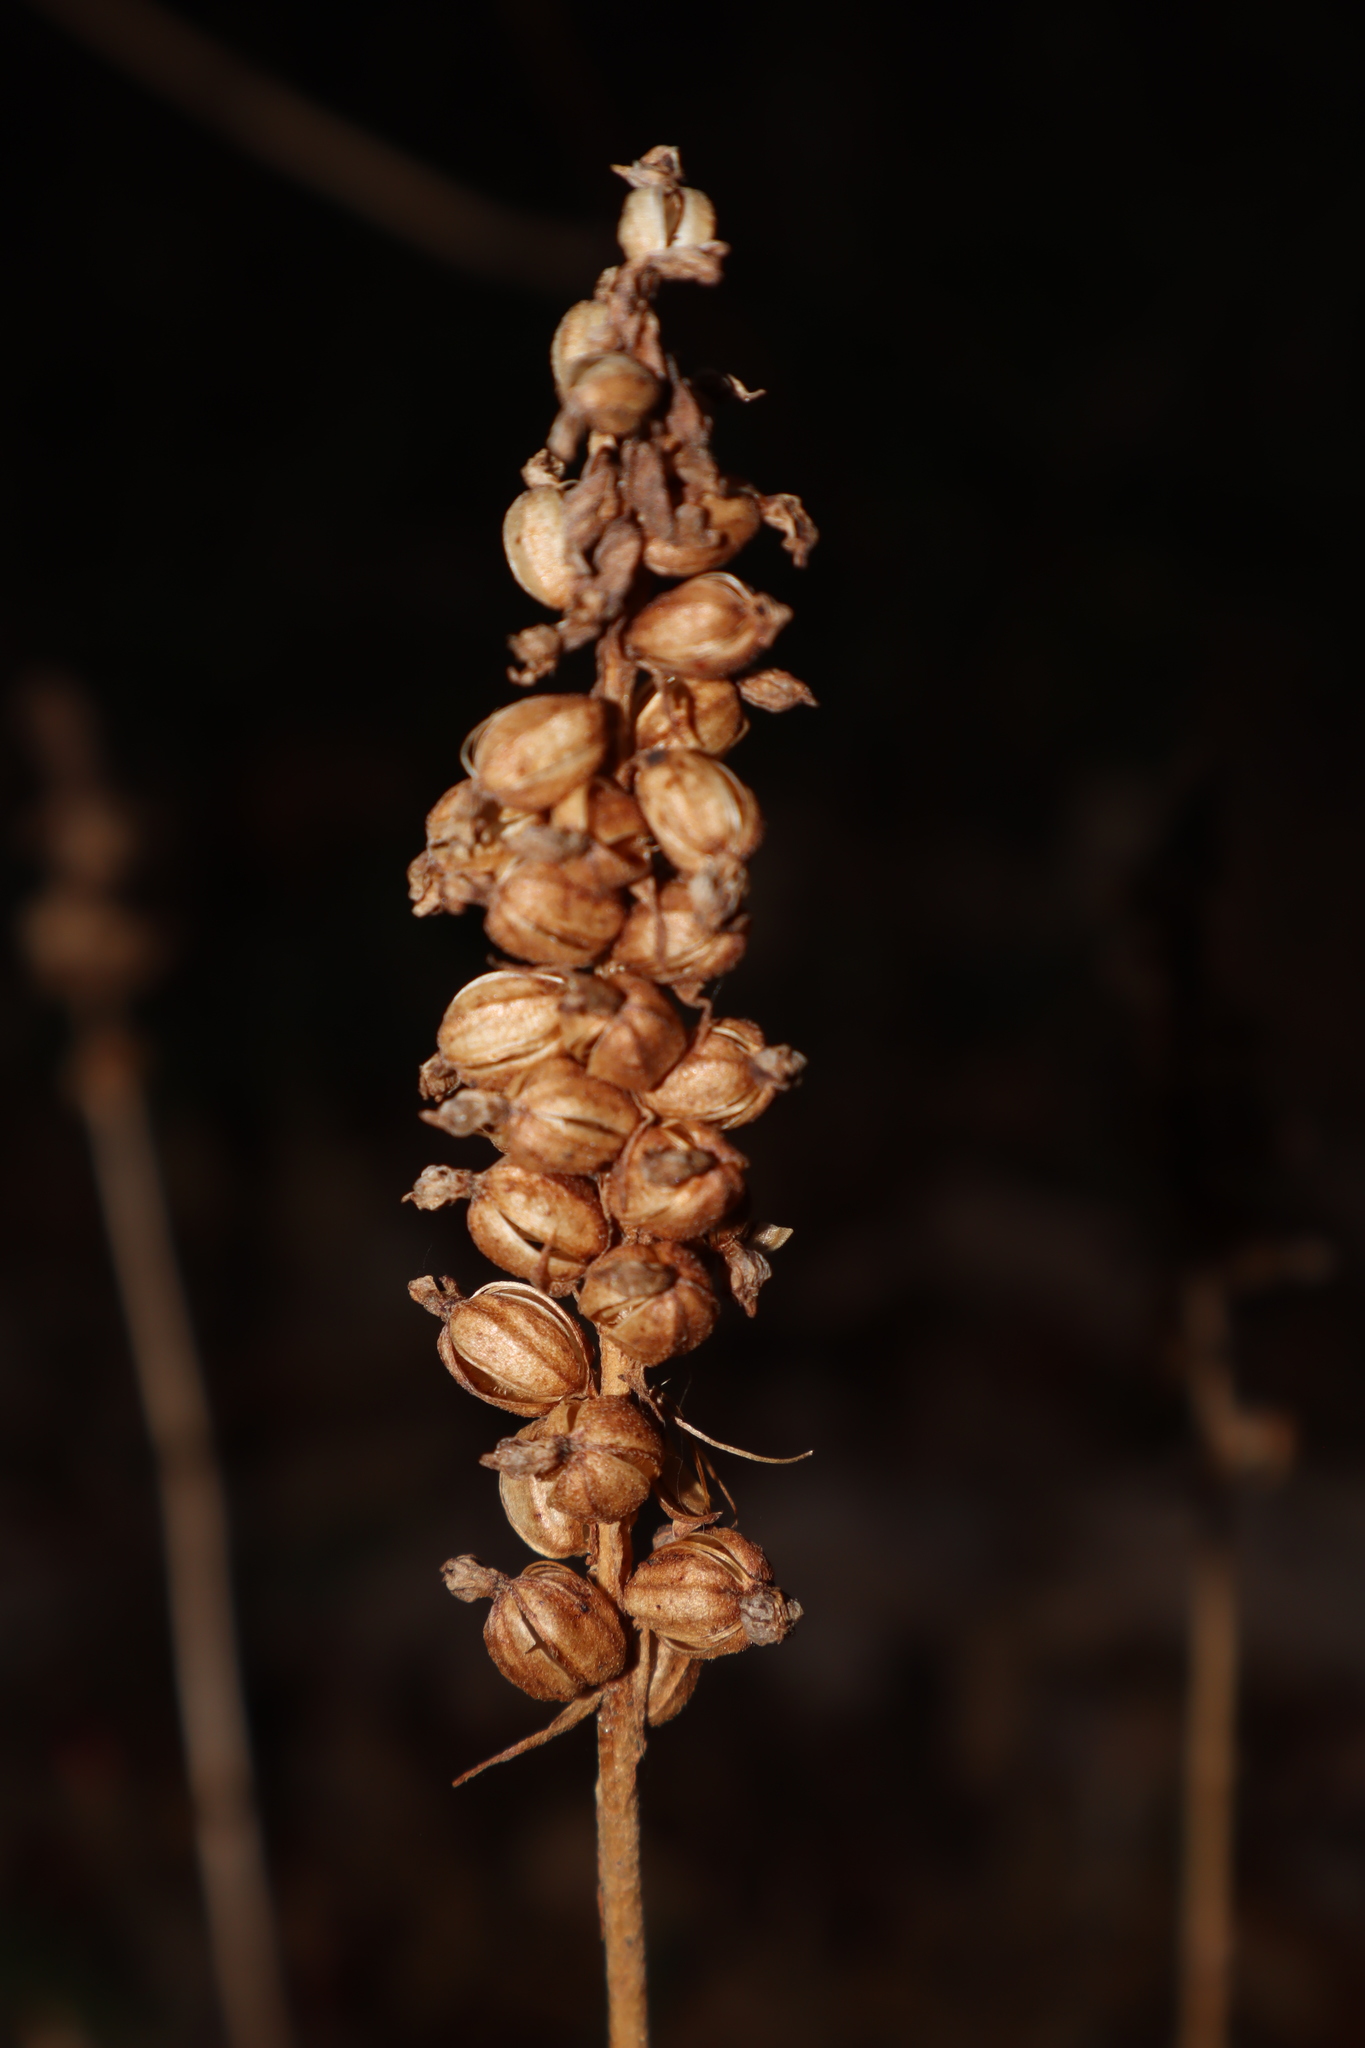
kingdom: Plantae
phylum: Tracheophyta
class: Liliopsida
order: Asparagales
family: Orchidaceae
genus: Goodyera
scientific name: Goodyera pubescens
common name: Downy rattlesnake-plantain
